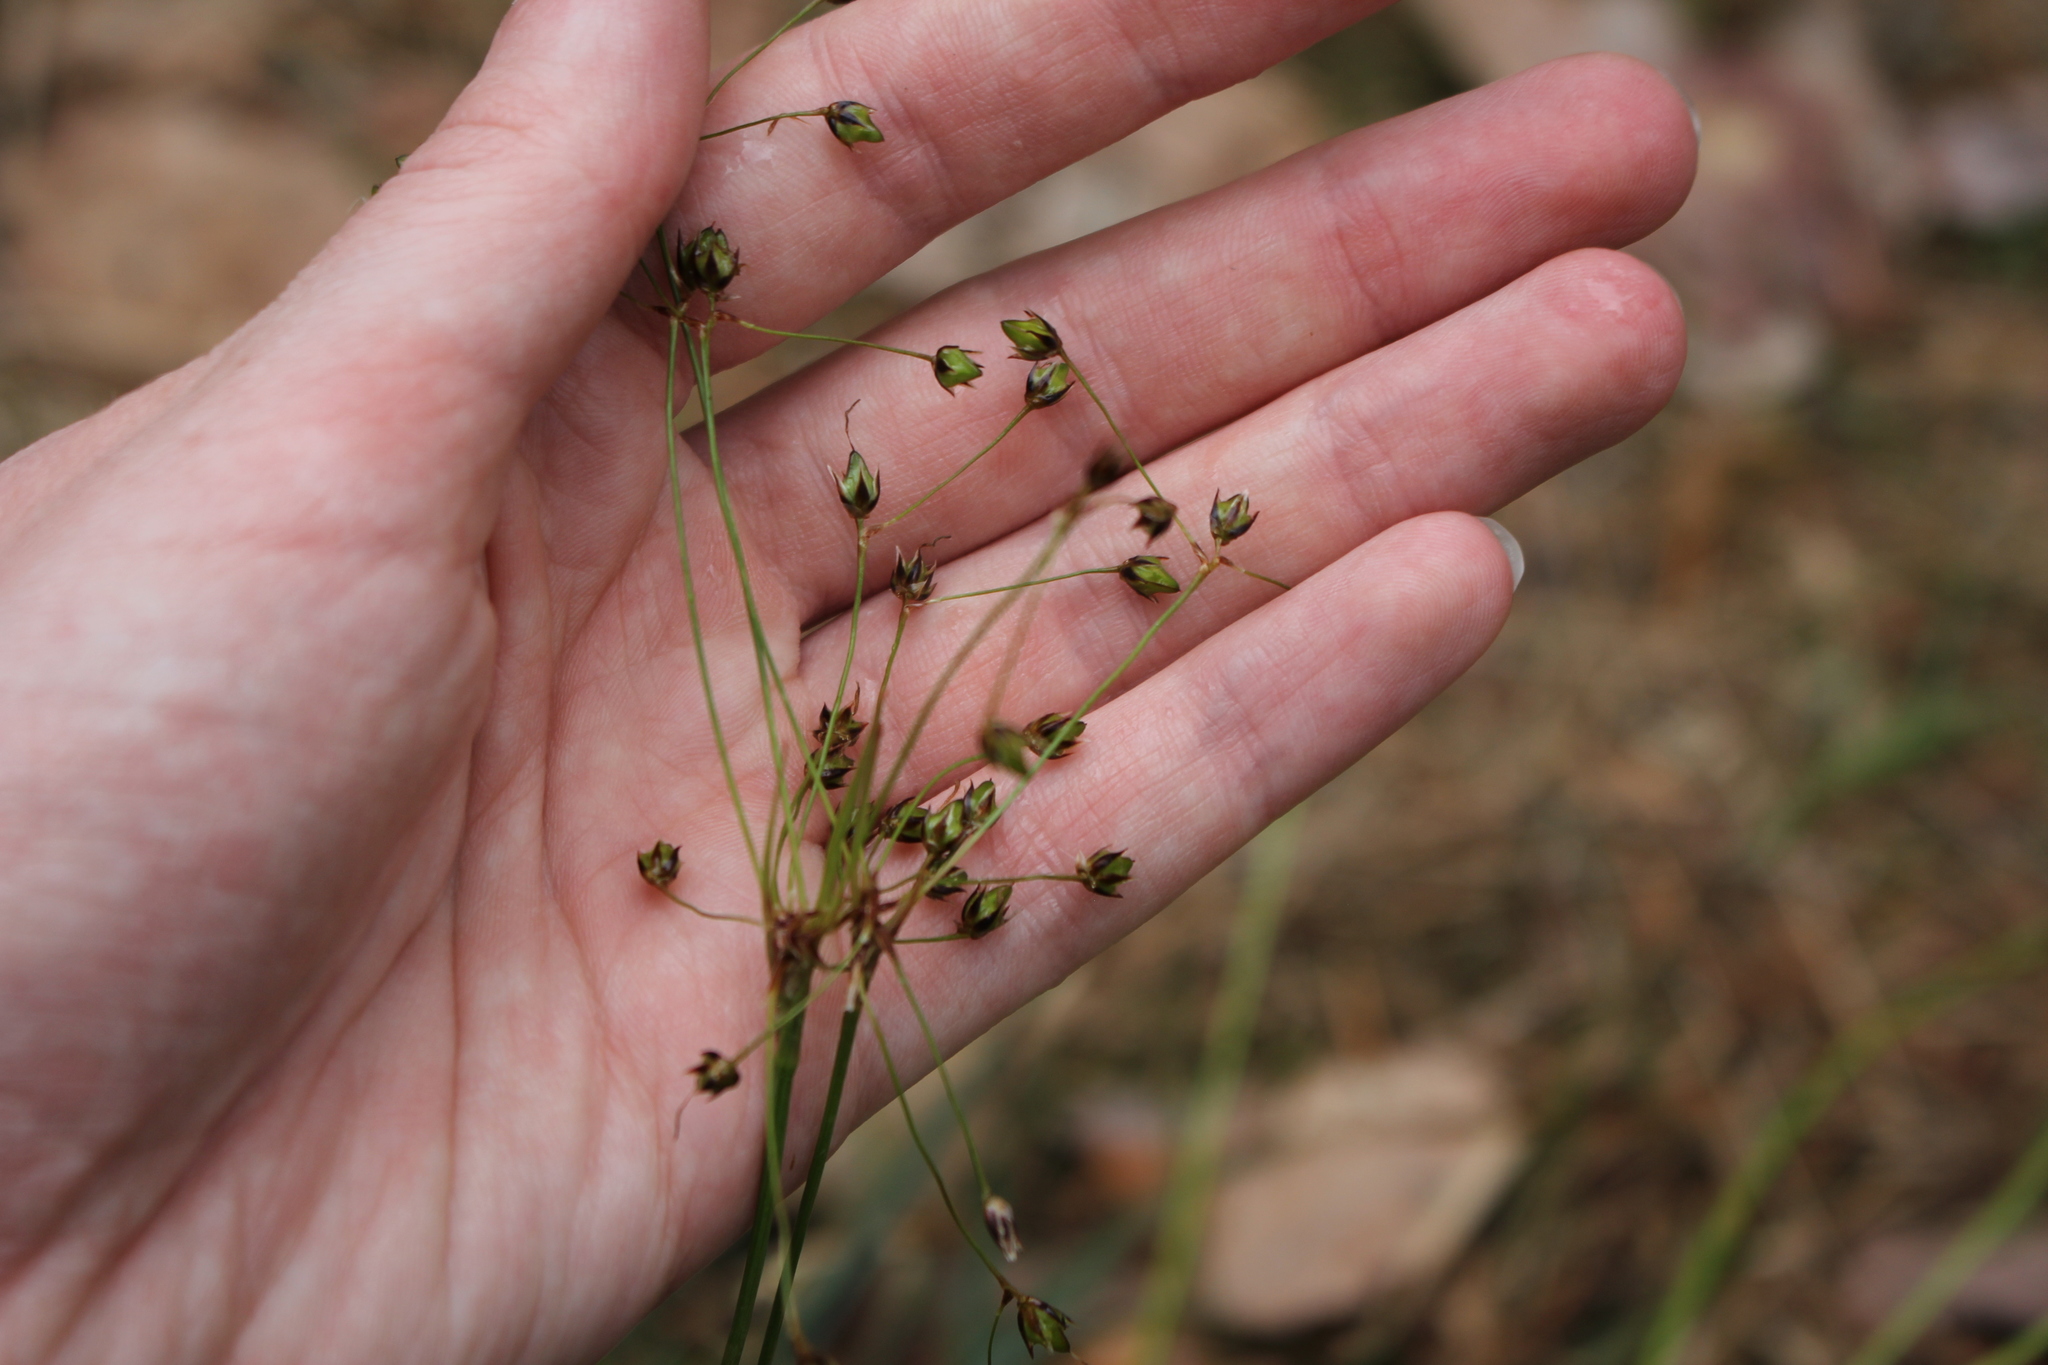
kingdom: Plantae
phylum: Tracheophyta
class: Liliopsida
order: Poales
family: Juncaceae
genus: Luzula
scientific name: Luzula pilosa
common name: Hairy wood-rush
